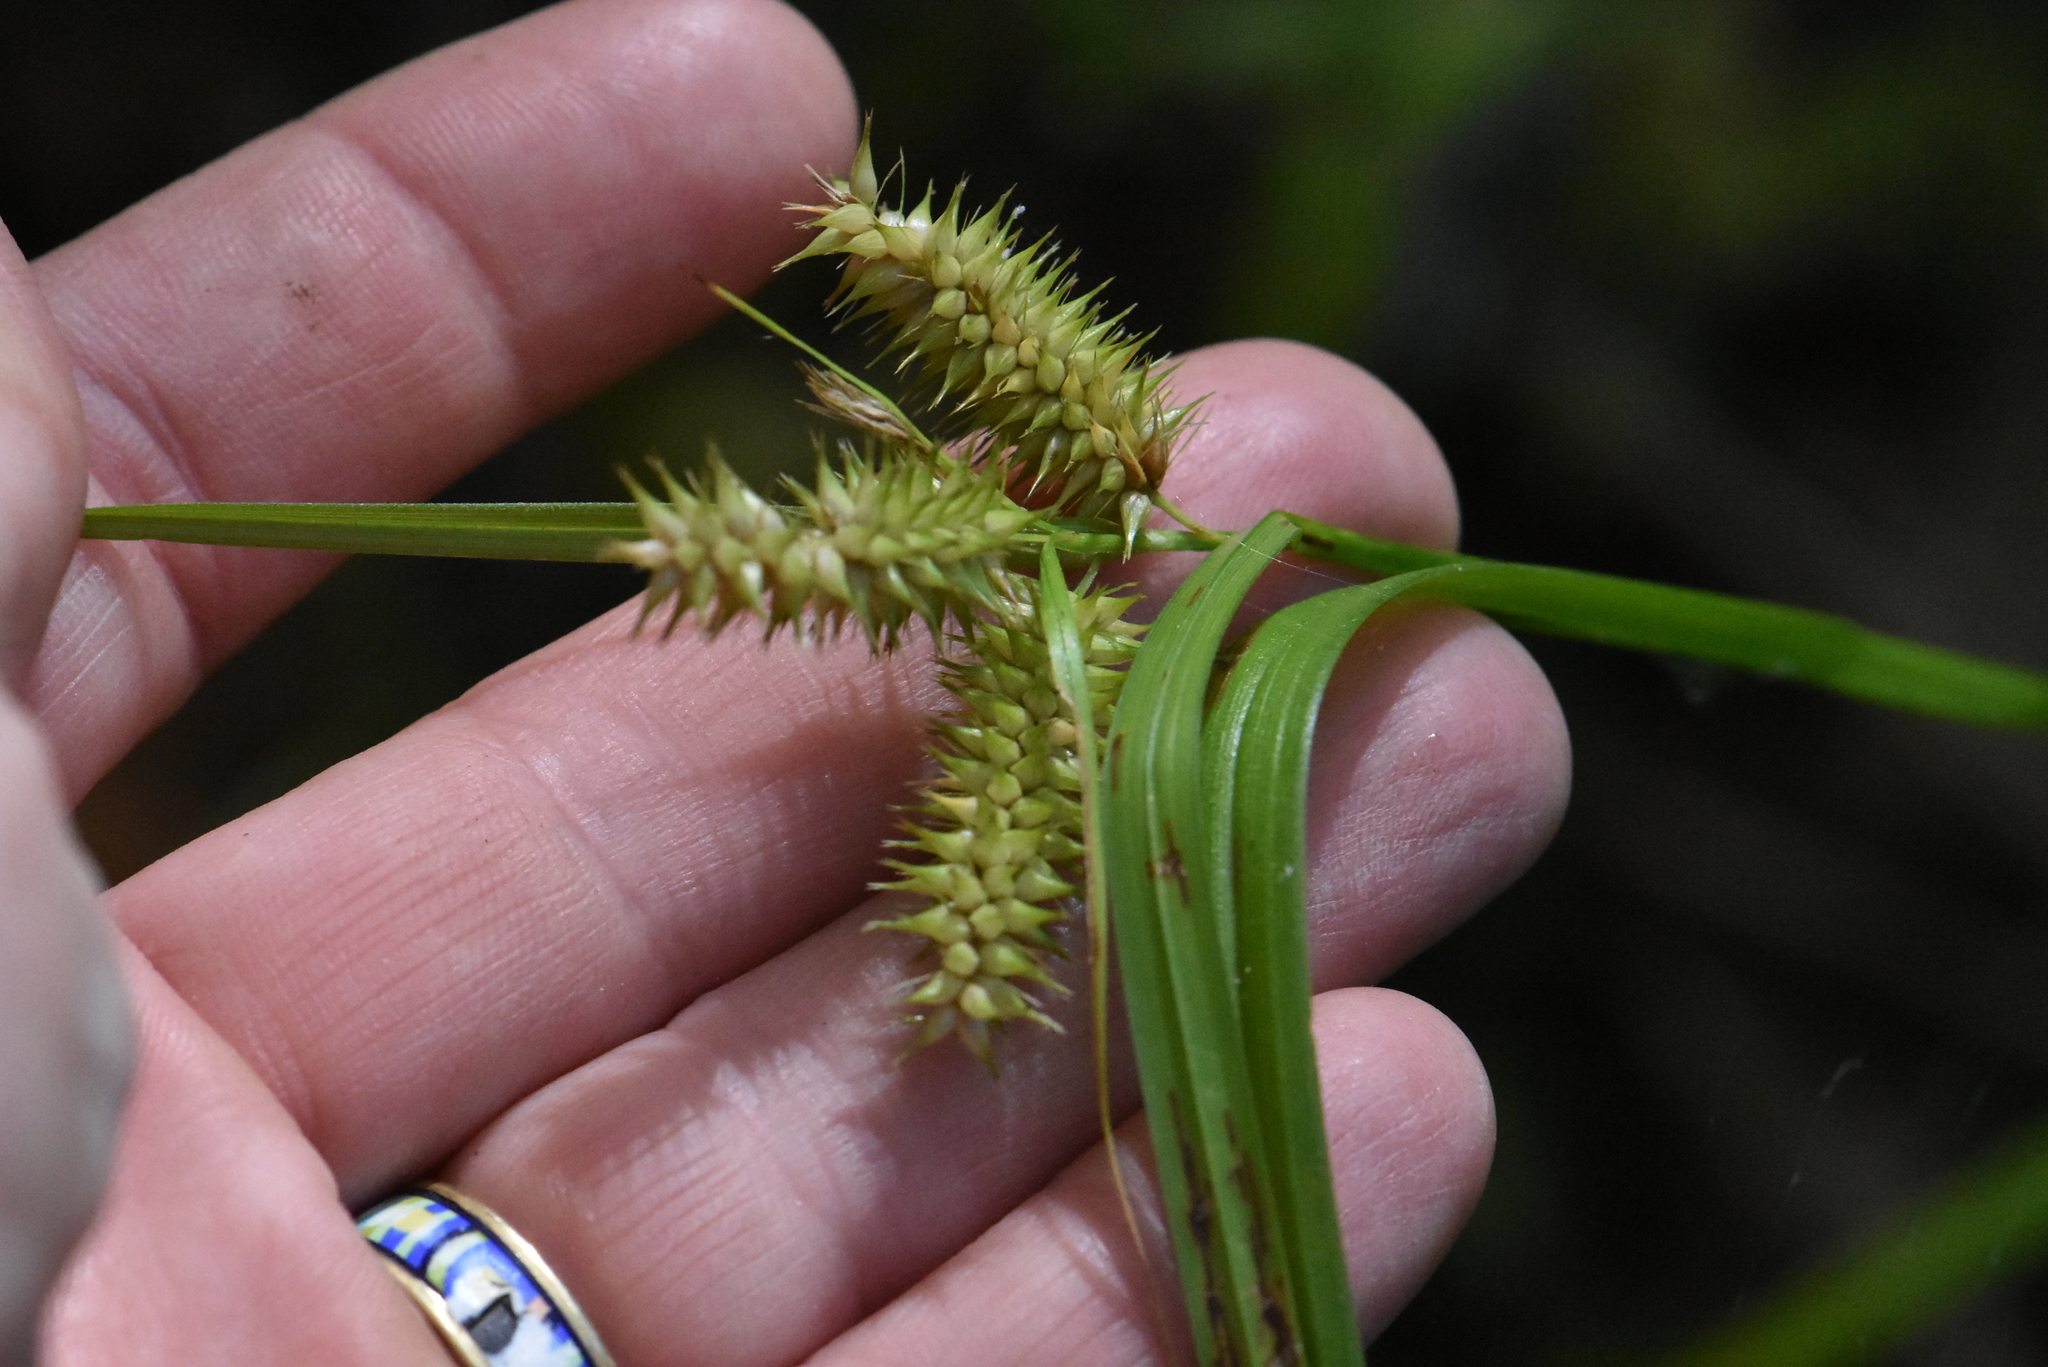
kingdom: Plantae
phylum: Tracheophyta
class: Liliopsida
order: Poales
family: Cyperaceae
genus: Carex
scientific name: Carex pseudocyperus
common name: Cyperus sedge
